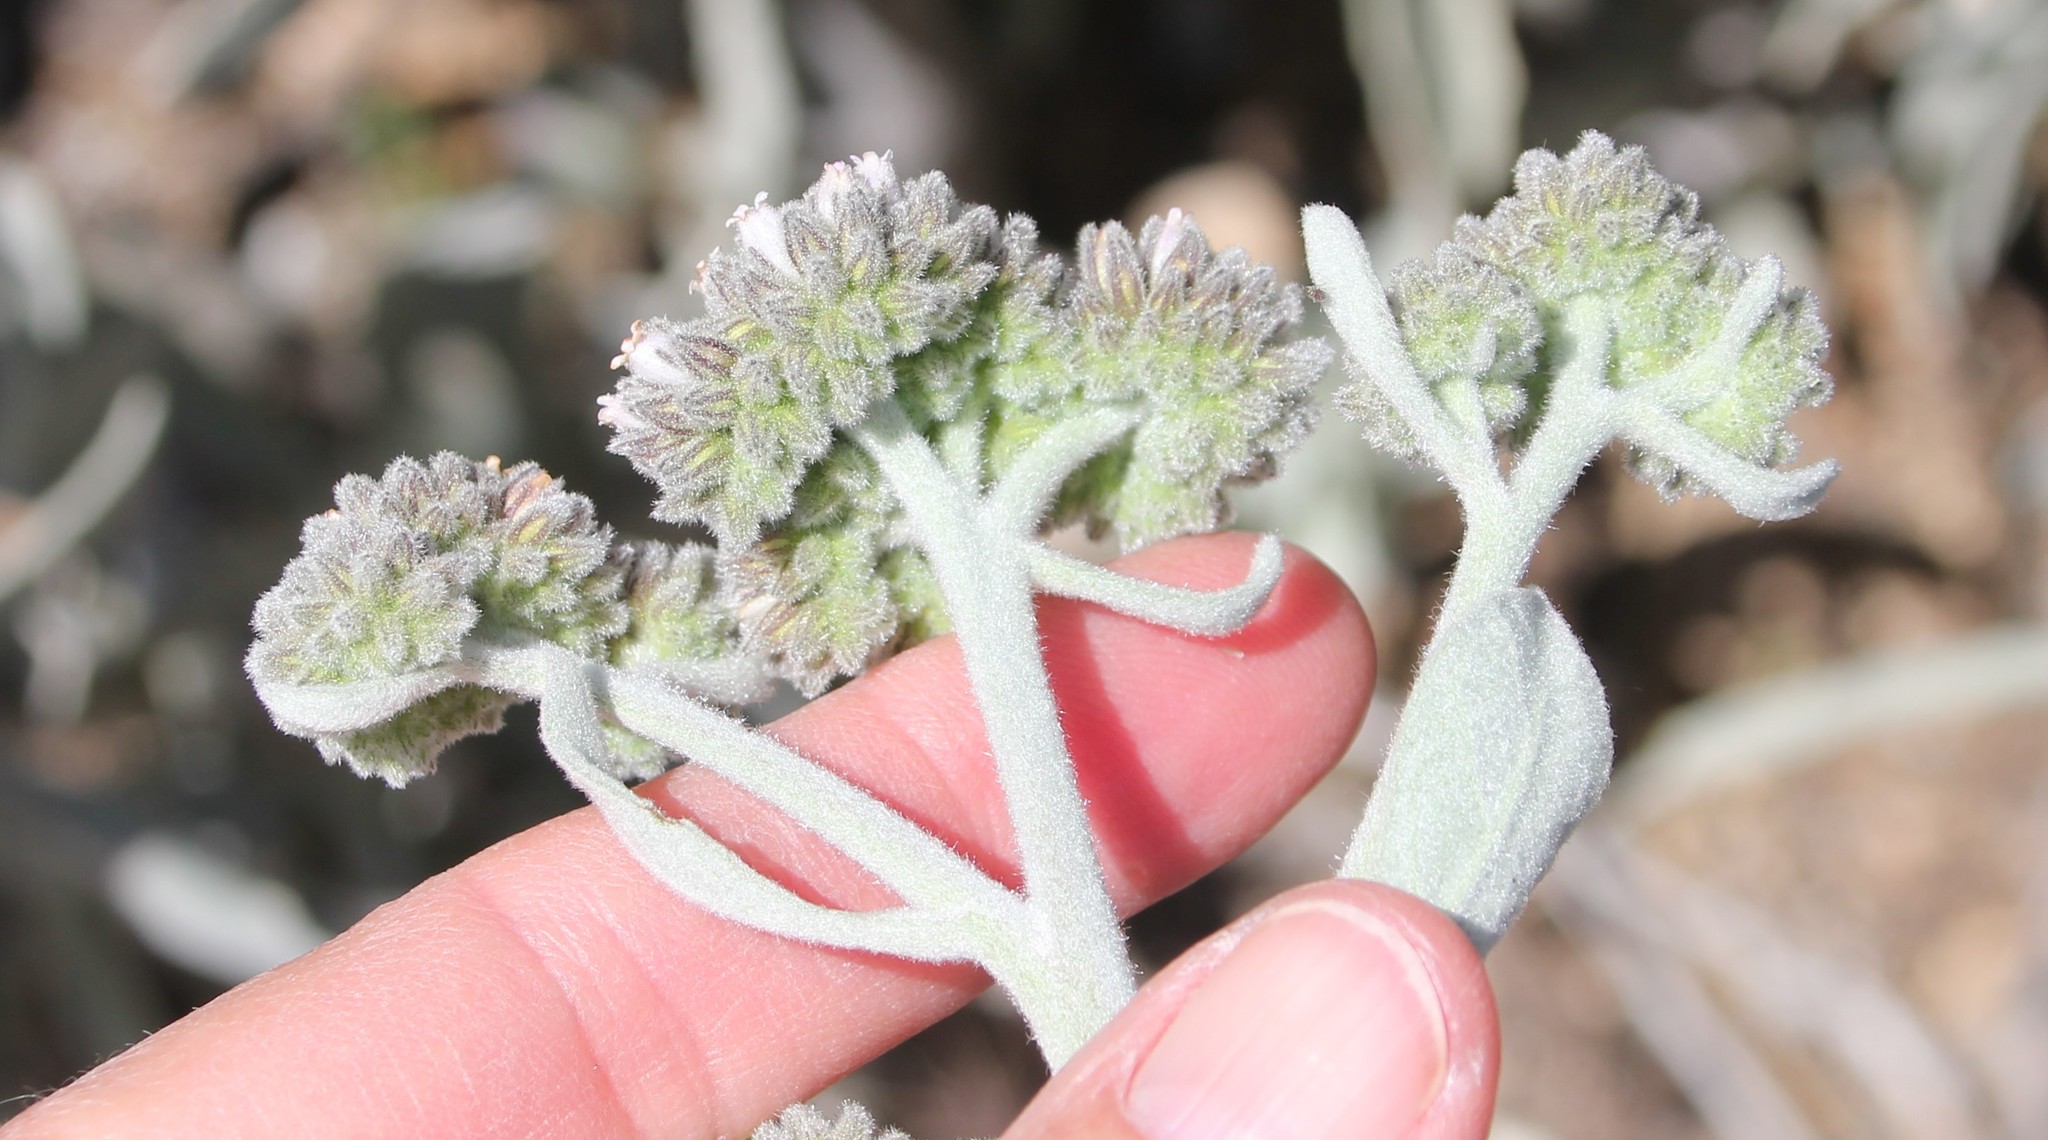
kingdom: Plantae
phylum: Tracheophyta
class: Magnoliopsida
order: Boraginales
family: Namaceae
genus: Eriodictyon
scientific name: Eriodictyon tomentosum
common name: Woolly yerba-santa
